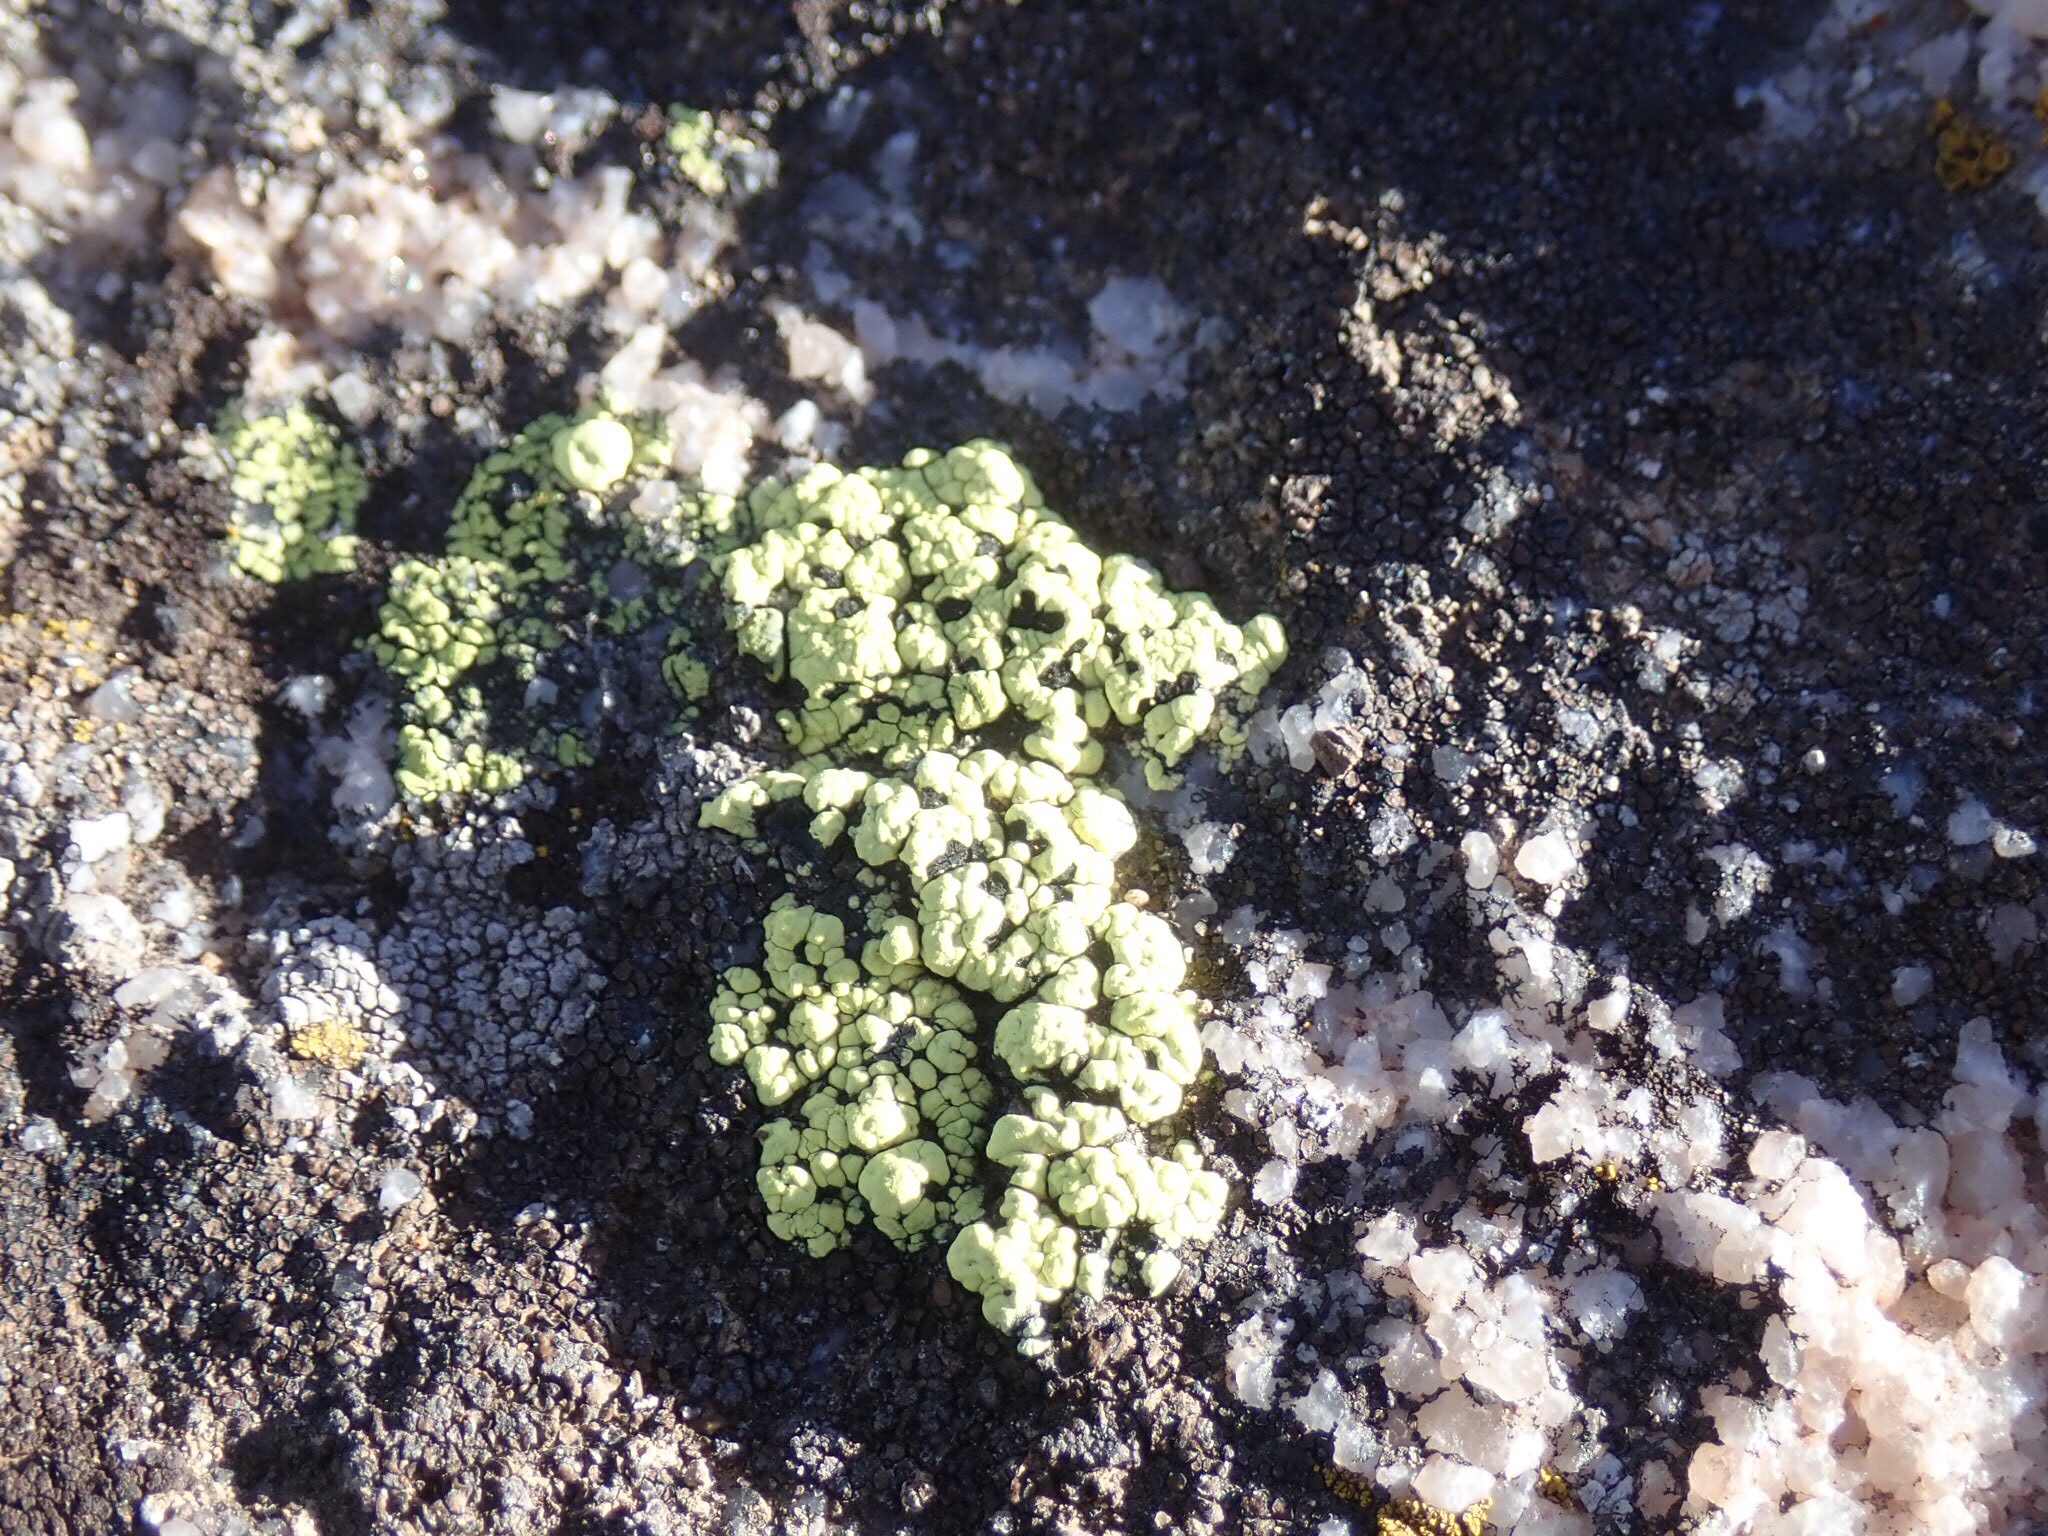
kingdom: Fungi
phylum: Ascomycota
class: Lecanoromycetes
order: Rhizocarpales
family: Rhizocarpaceae
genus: Rhizocarpon
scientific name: Rhizocarpon lecanorinum
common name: Crescent map lichen
